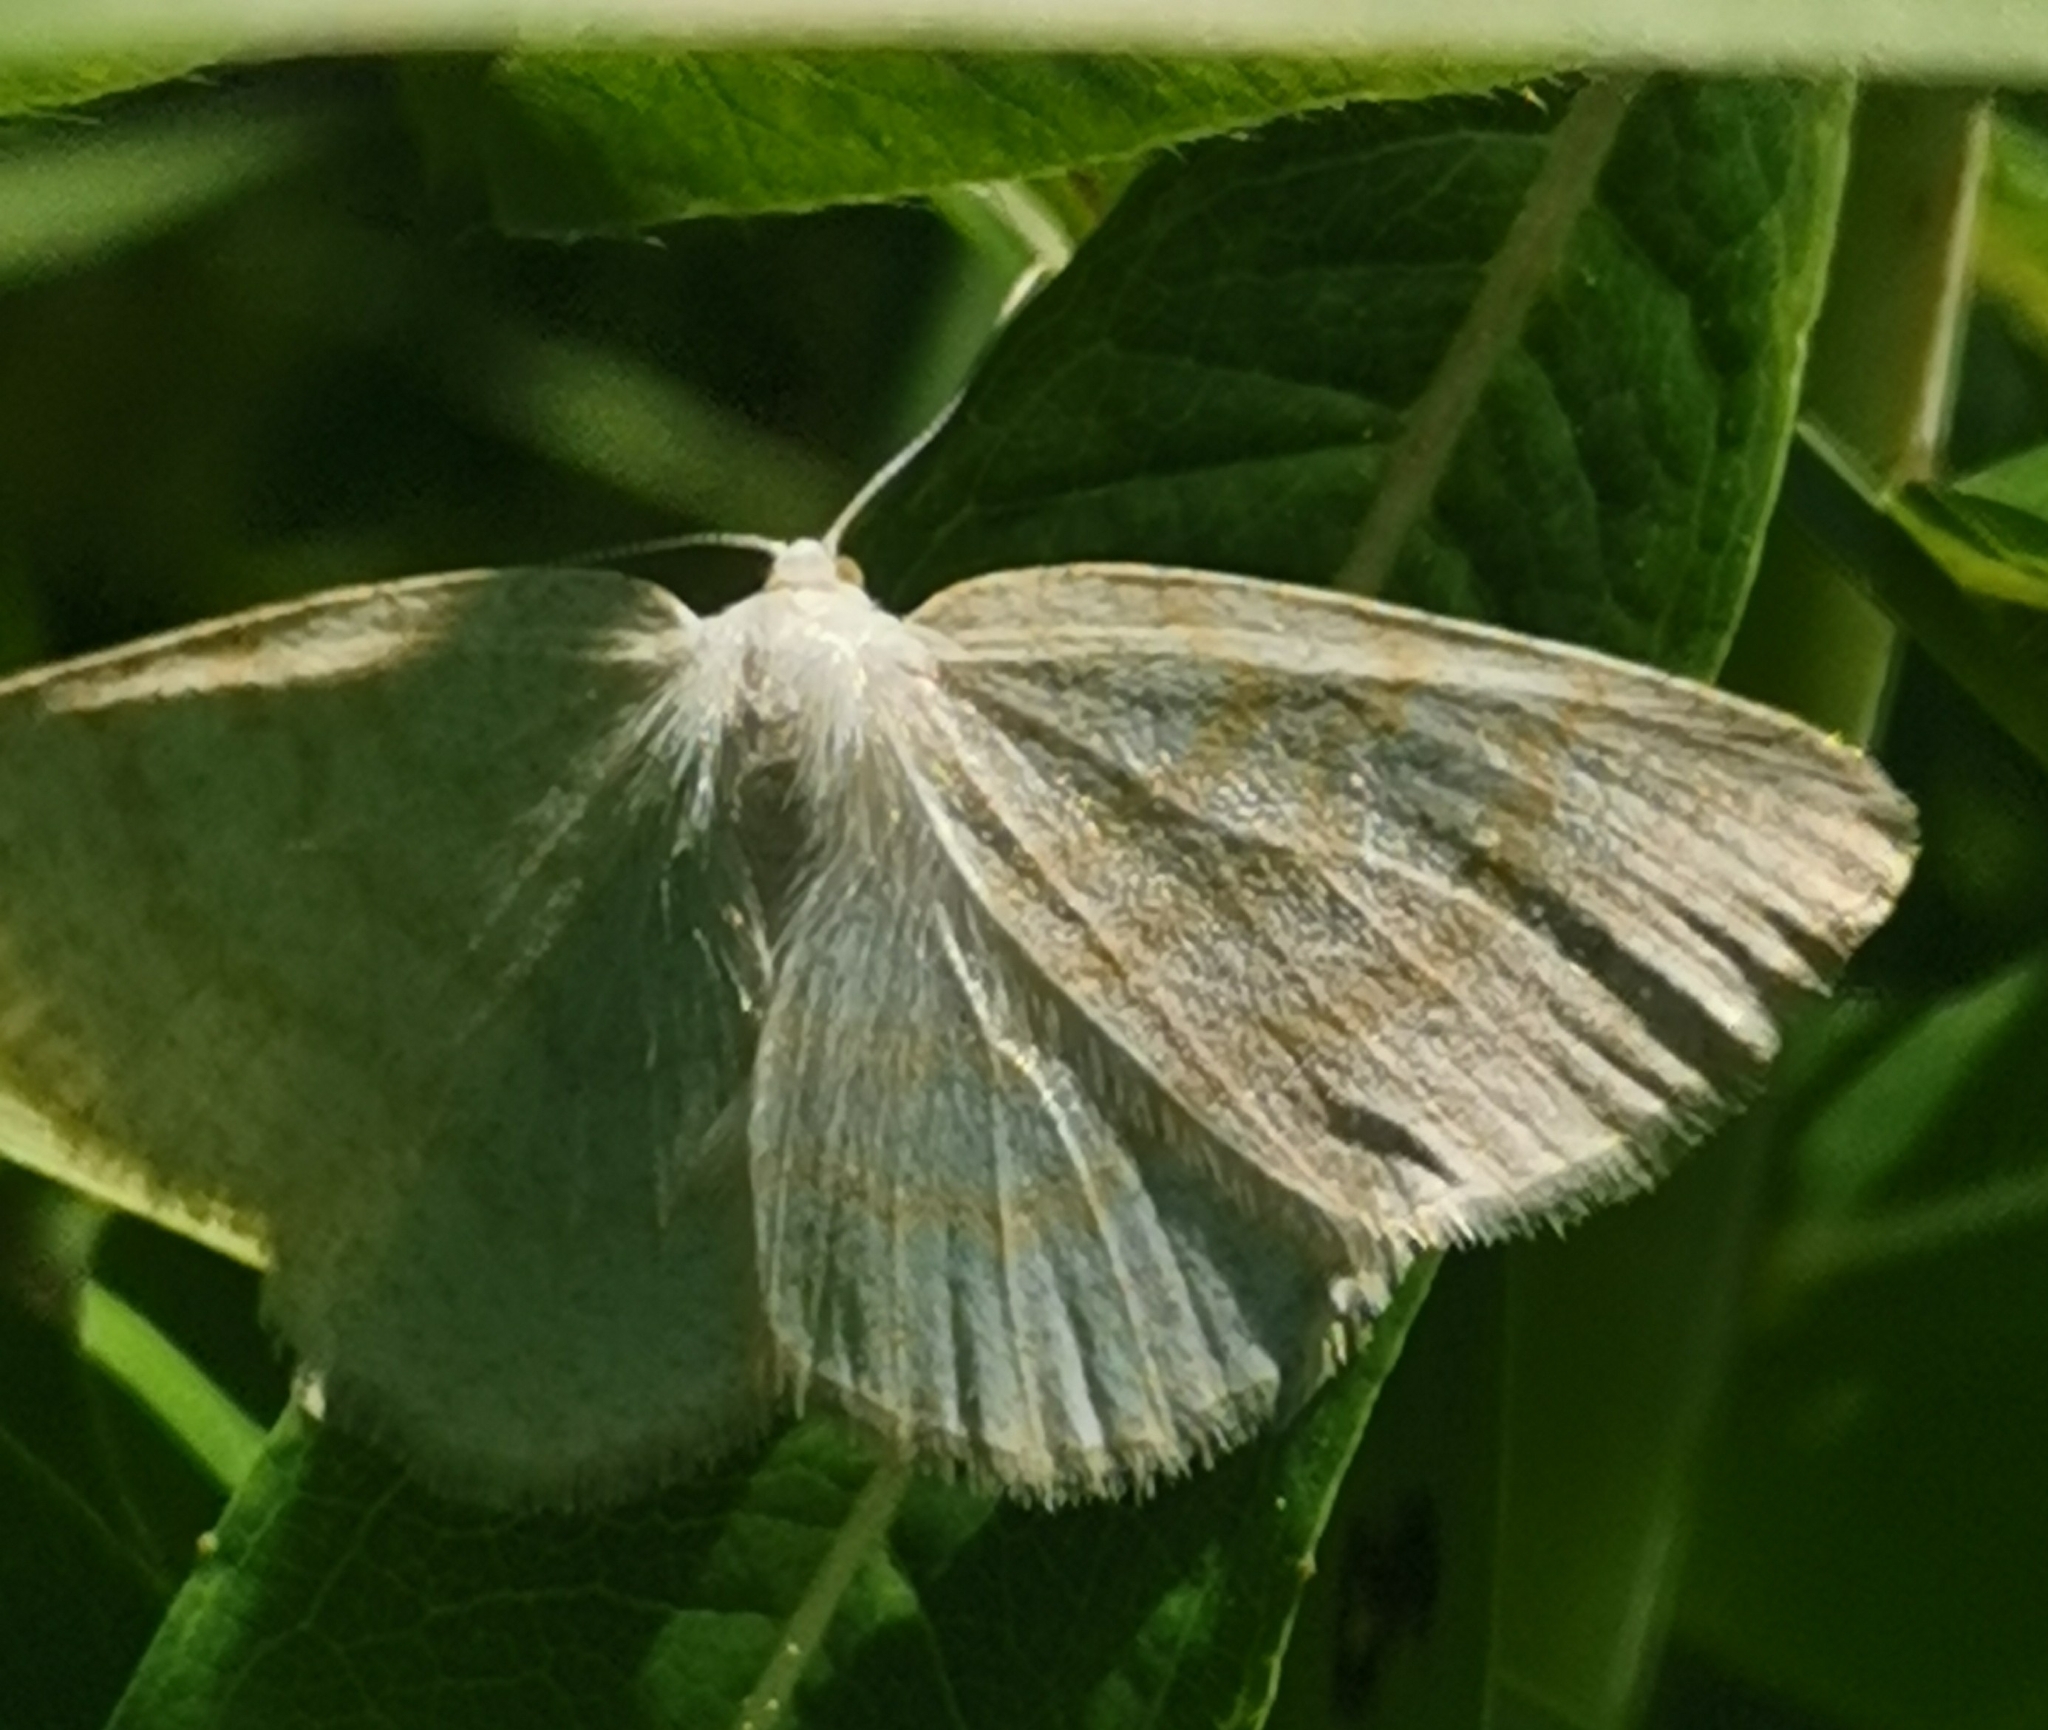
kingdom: Animalia
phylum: Arthropoda
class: Insecta
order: Lepidoptera
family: Geometridae
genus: Cabera
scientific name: Cabera exanthemata
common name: Common wave
